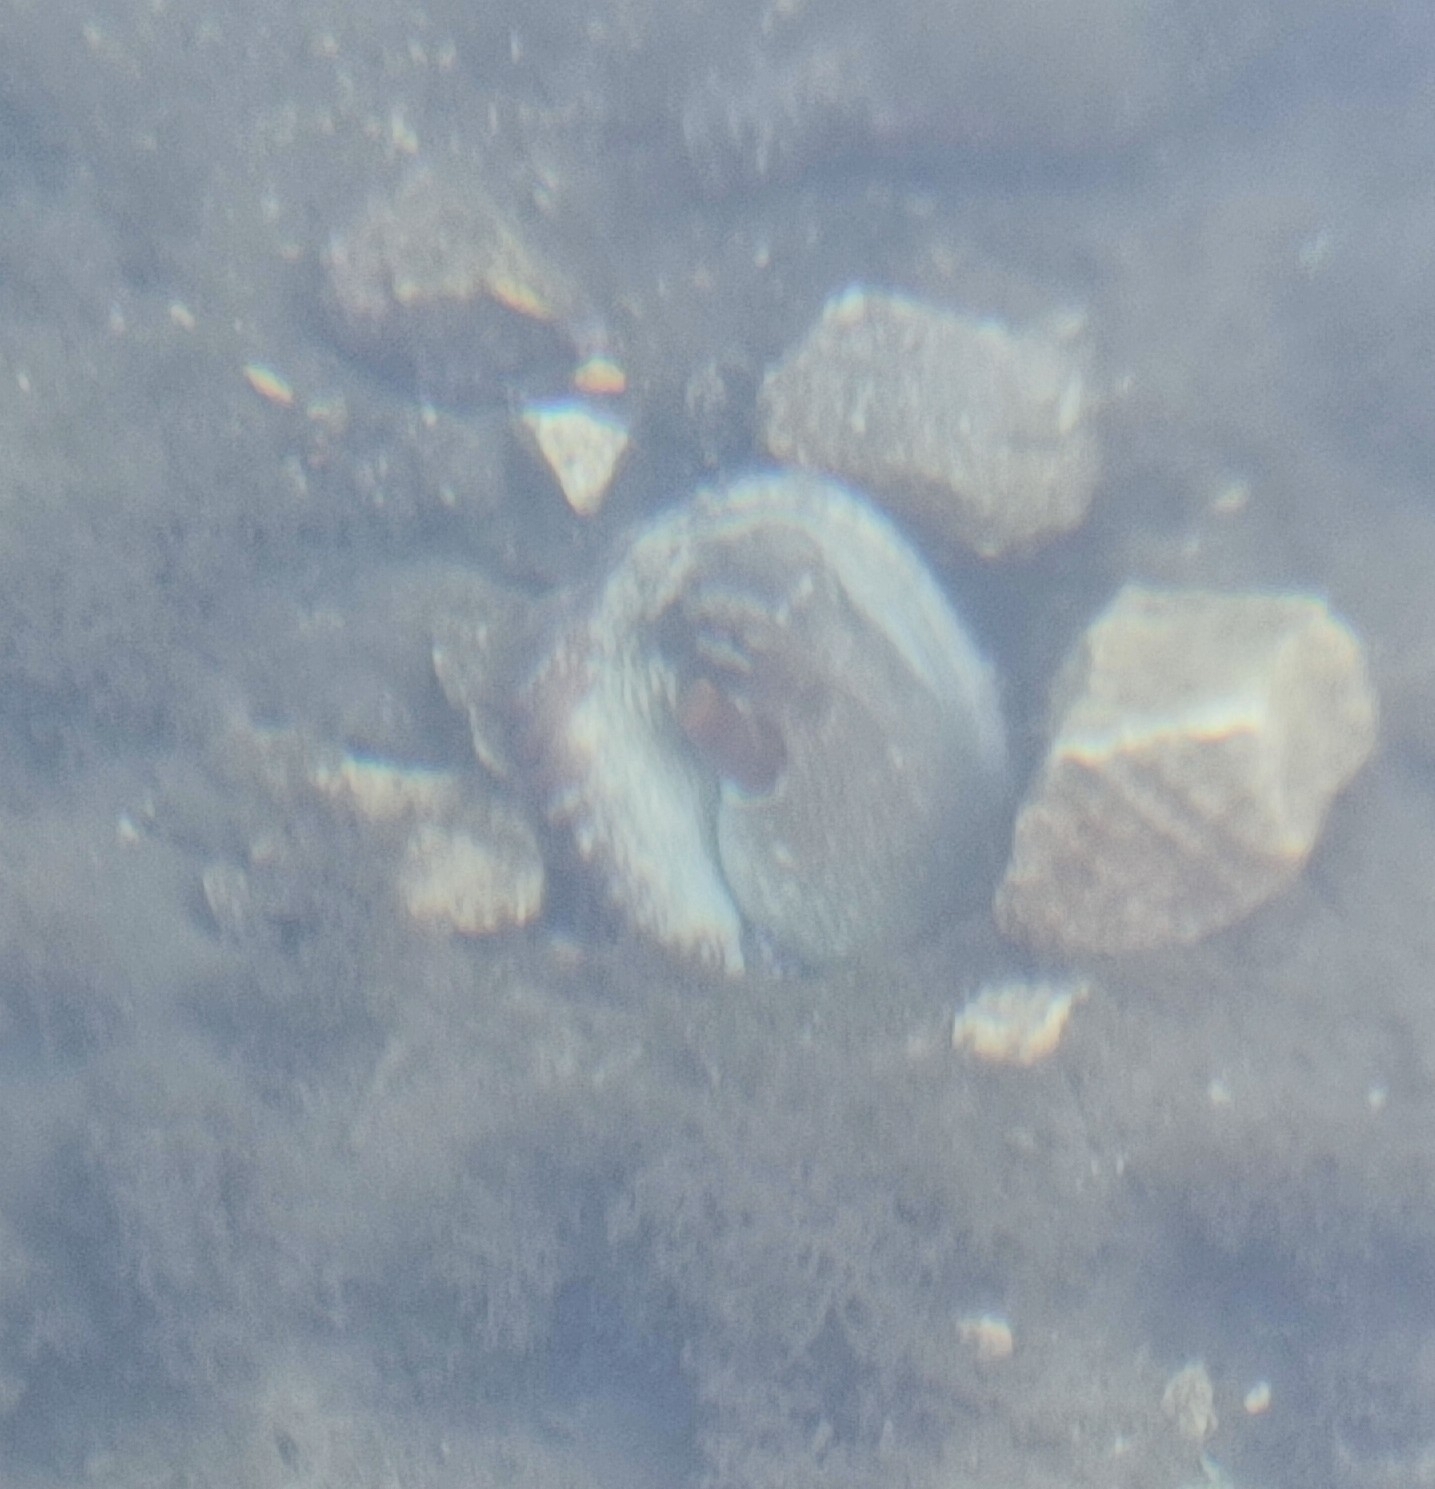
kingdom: Animalia
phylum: Mollusca
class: Cephalopoda
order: Octopoda
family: Octopodidae
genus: Octopus
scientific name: Octopus vulgaris
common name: Common octopus
